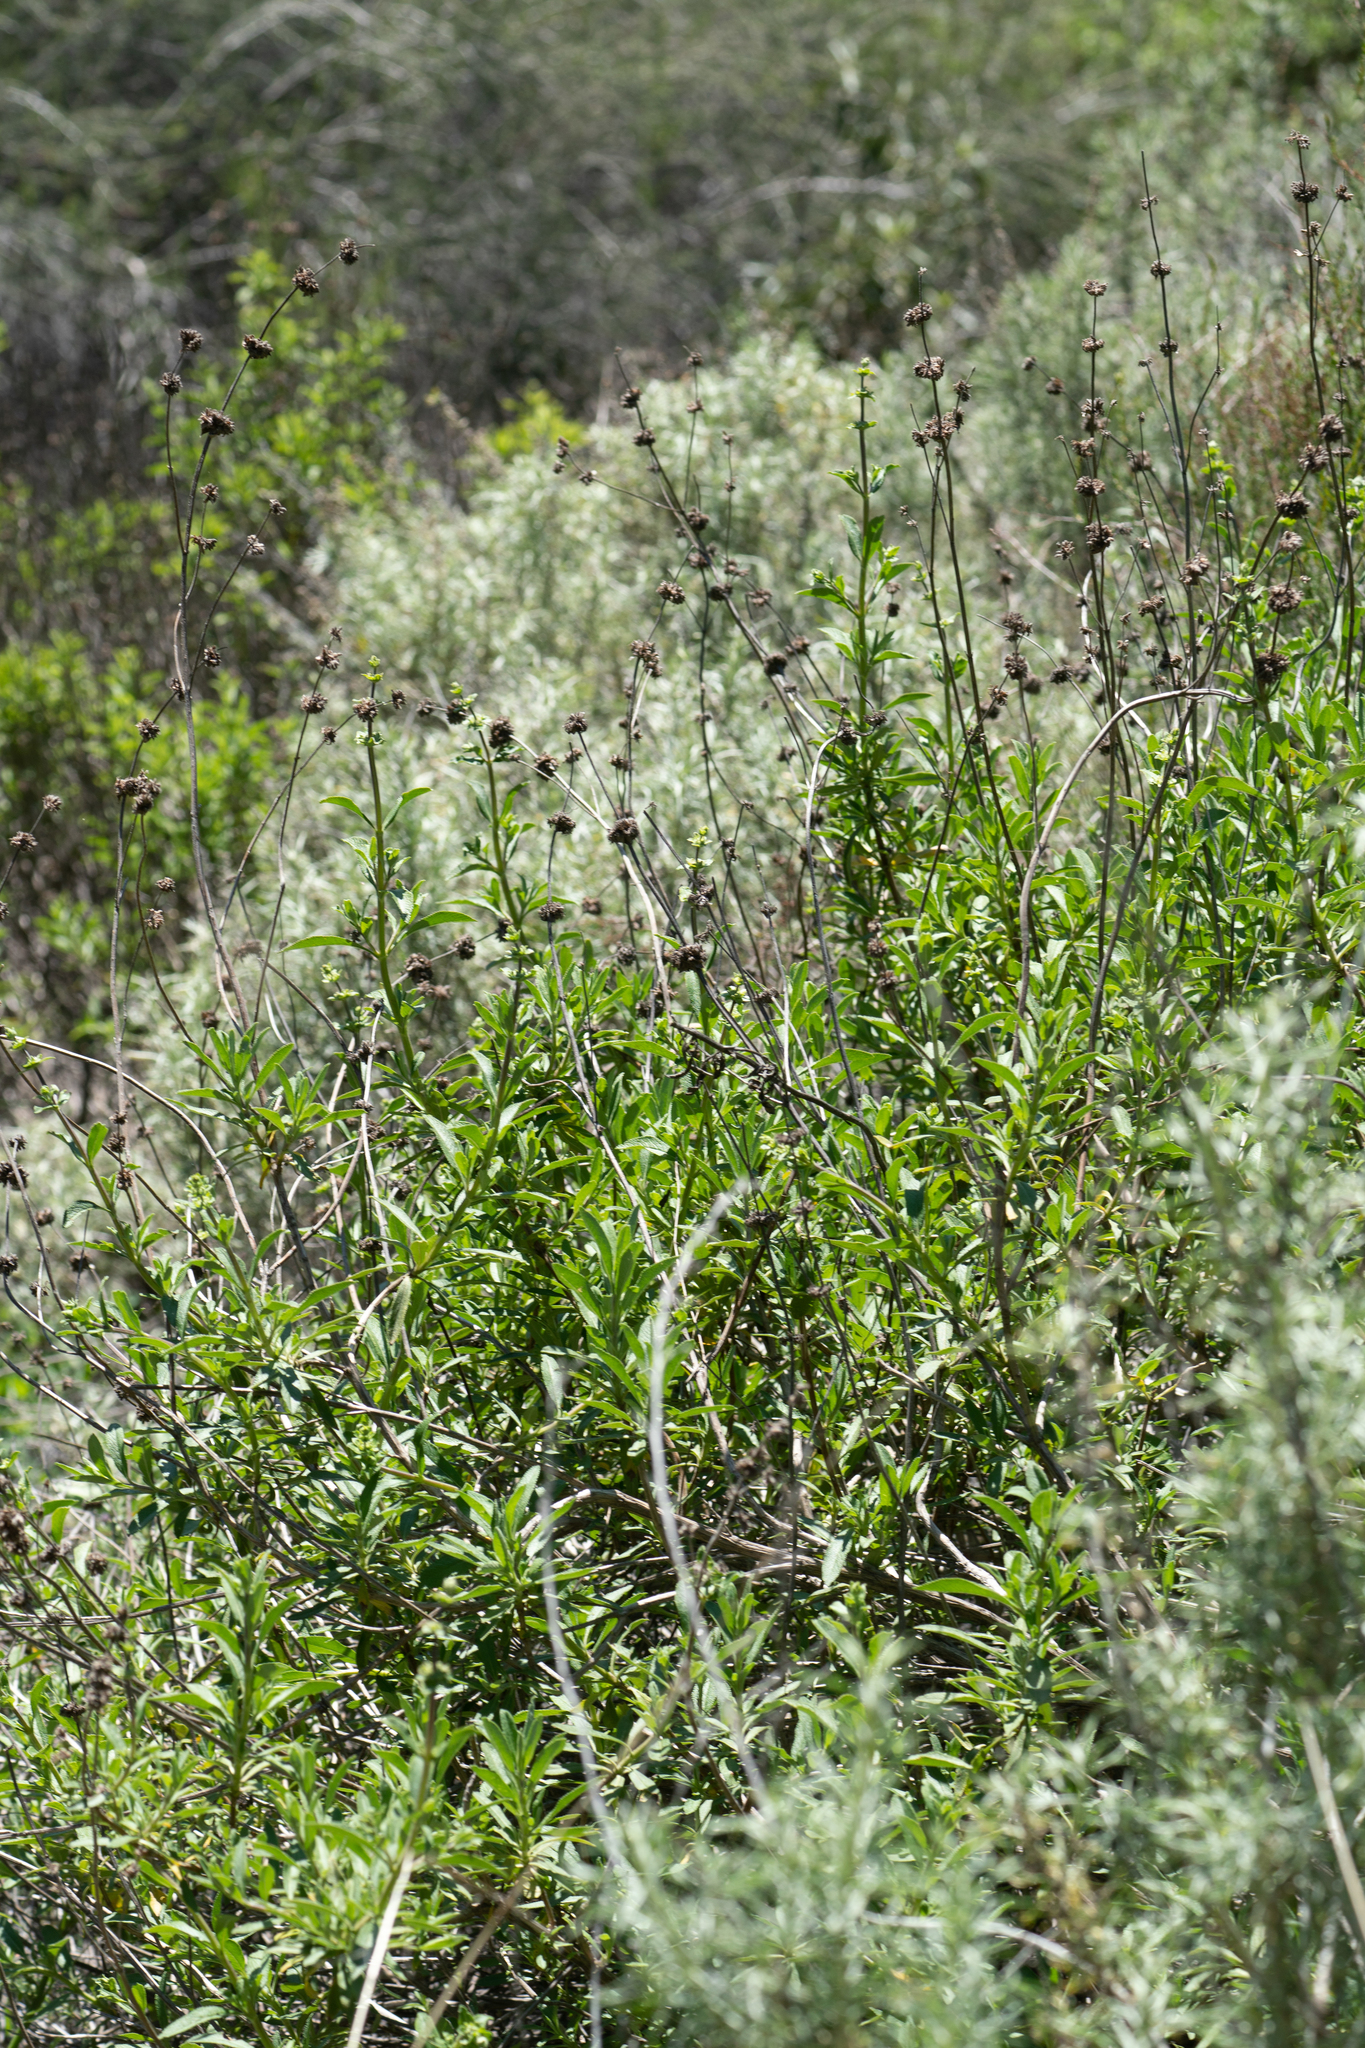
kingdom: Plantae
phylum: Tracheophyta
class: Magnoliopsida
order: Lamiales
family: Lamiaceae
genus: Salvia
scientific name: Salvia mellifera
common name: Black sage
